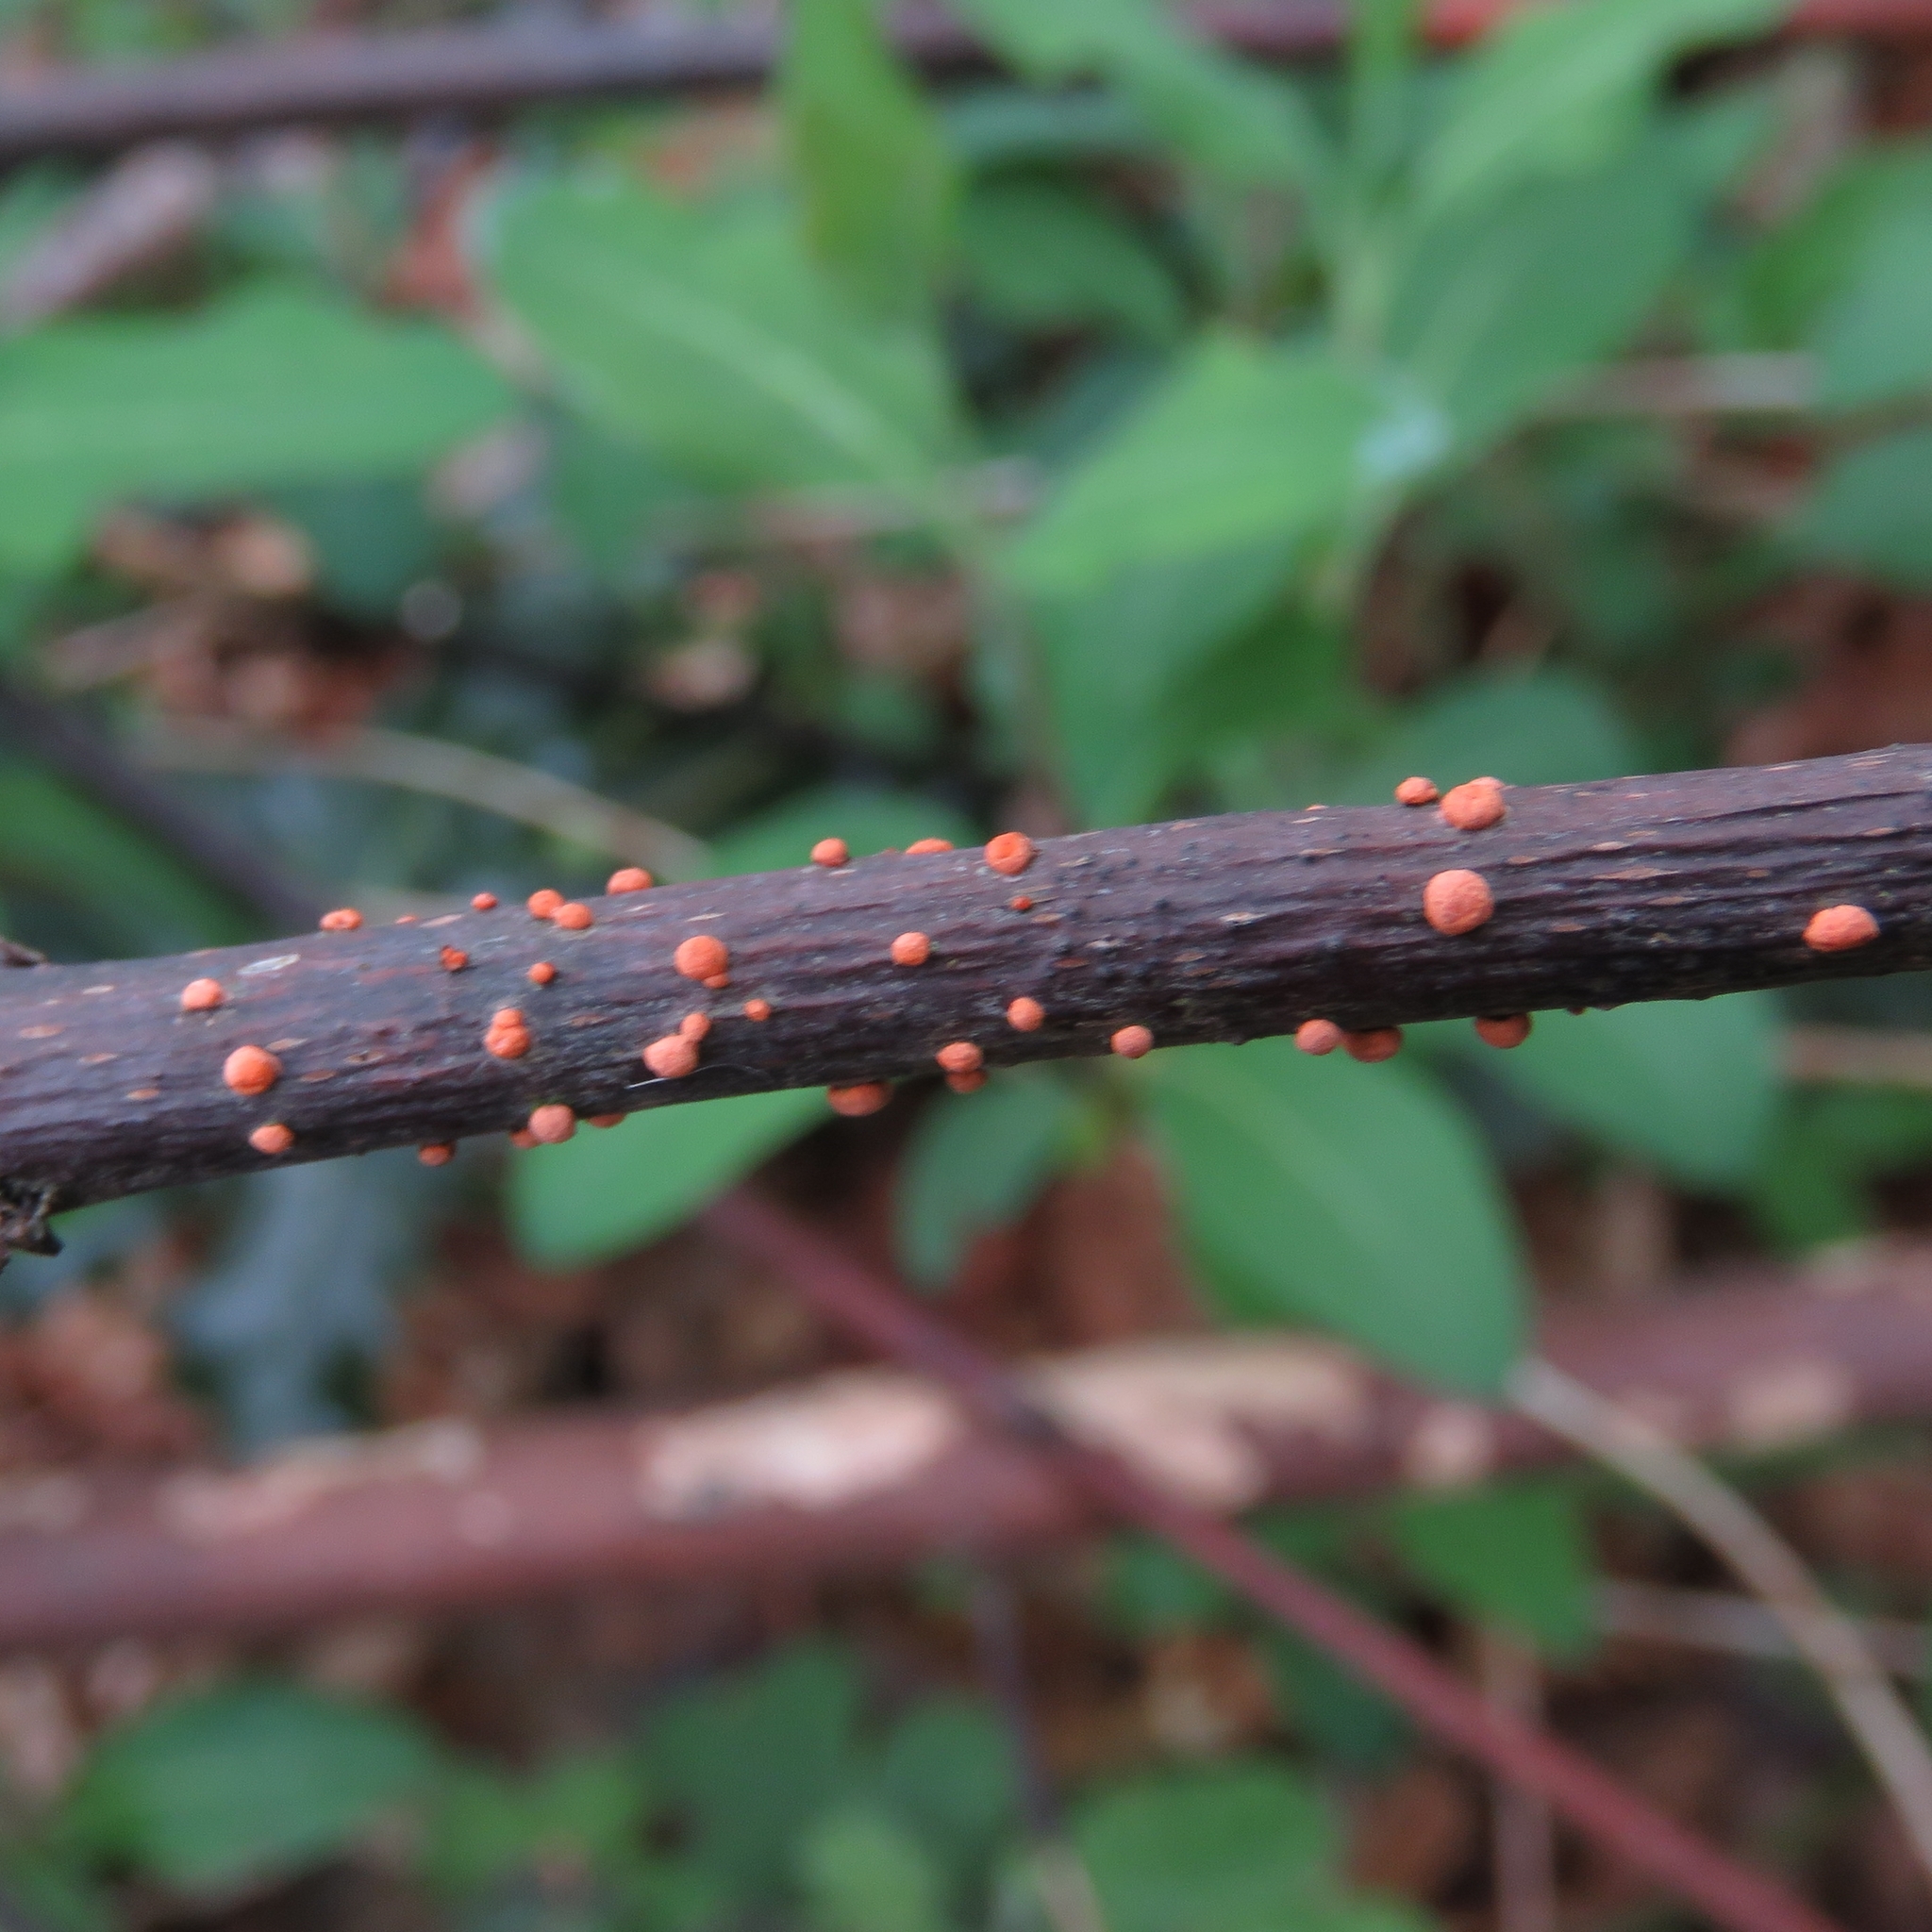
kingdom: Fungi
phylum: Ascomycota
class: Sordariomycetes
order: Hypocreales
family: Nectriaceae
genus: Nectria
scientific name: Nectria cinnabarina
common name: Coral spot
